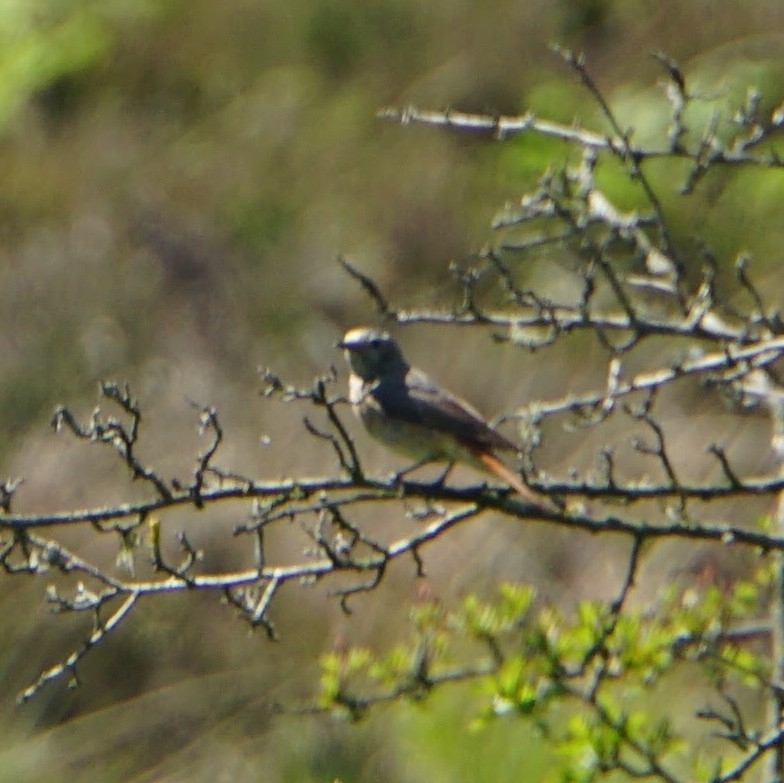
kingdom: Animalia
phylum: Chordata
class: Aves
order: Passeriformes
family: Muscicapidae
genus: Phoenicurus
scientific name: Phoenicurus phoenicurus
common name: Common redstart
